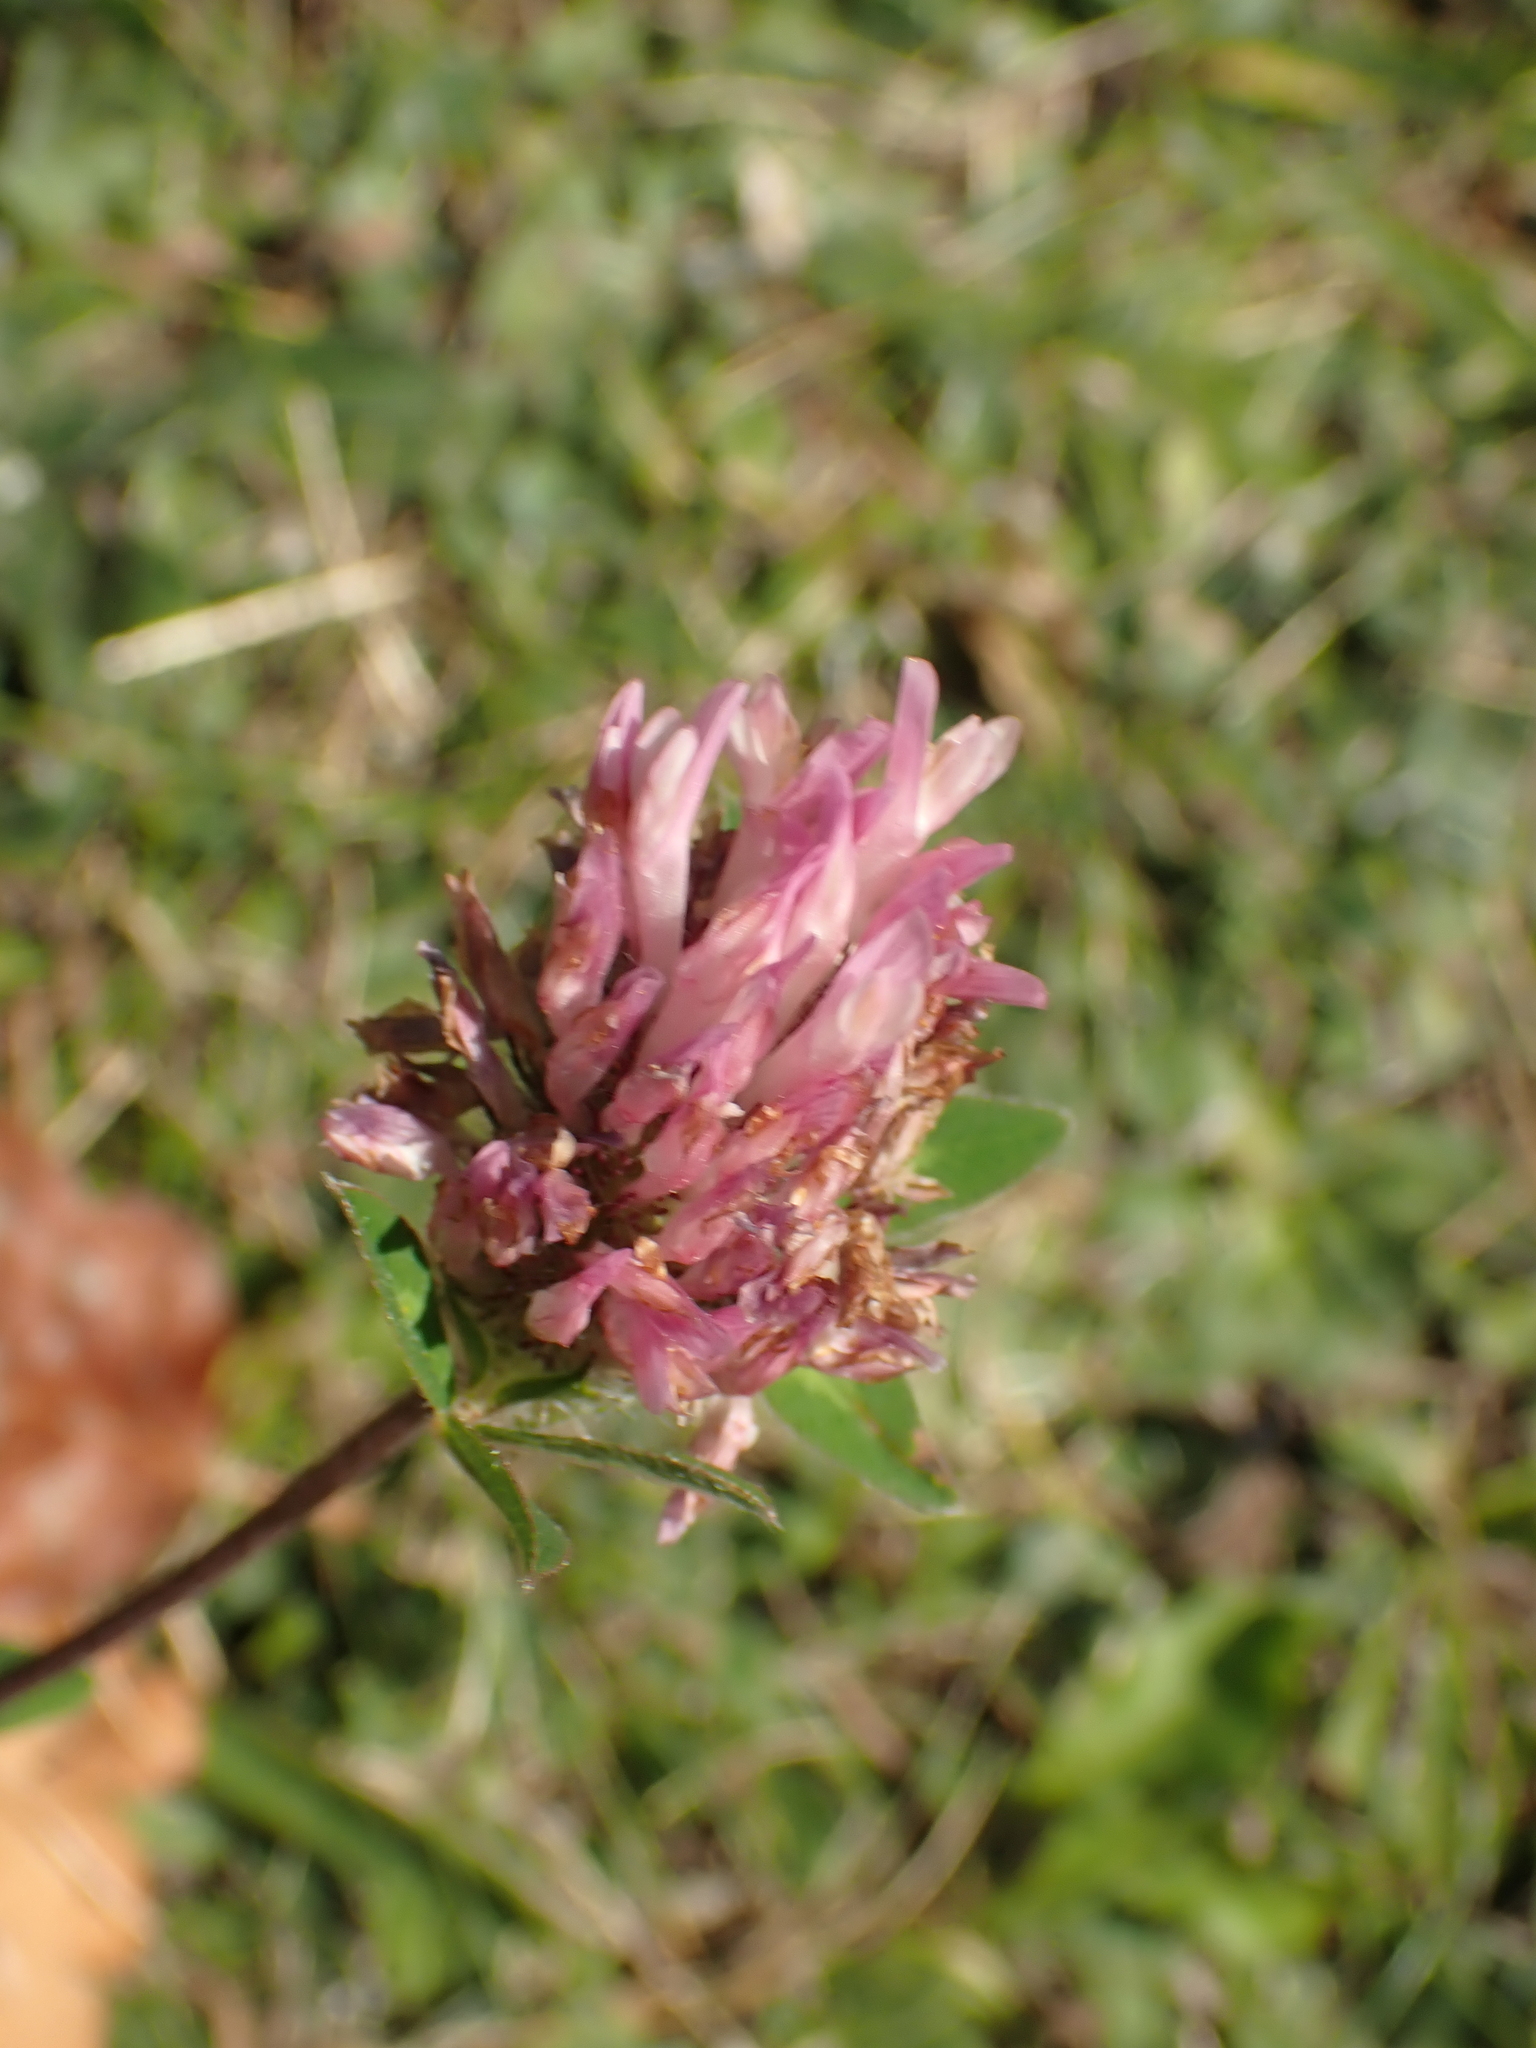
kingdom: Plantae
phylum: Tracheophyta
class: Magnoliopsida
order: Fabales
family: Fabaceae
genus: Trifolium
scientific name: Trifolium pratense
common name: Red clover
